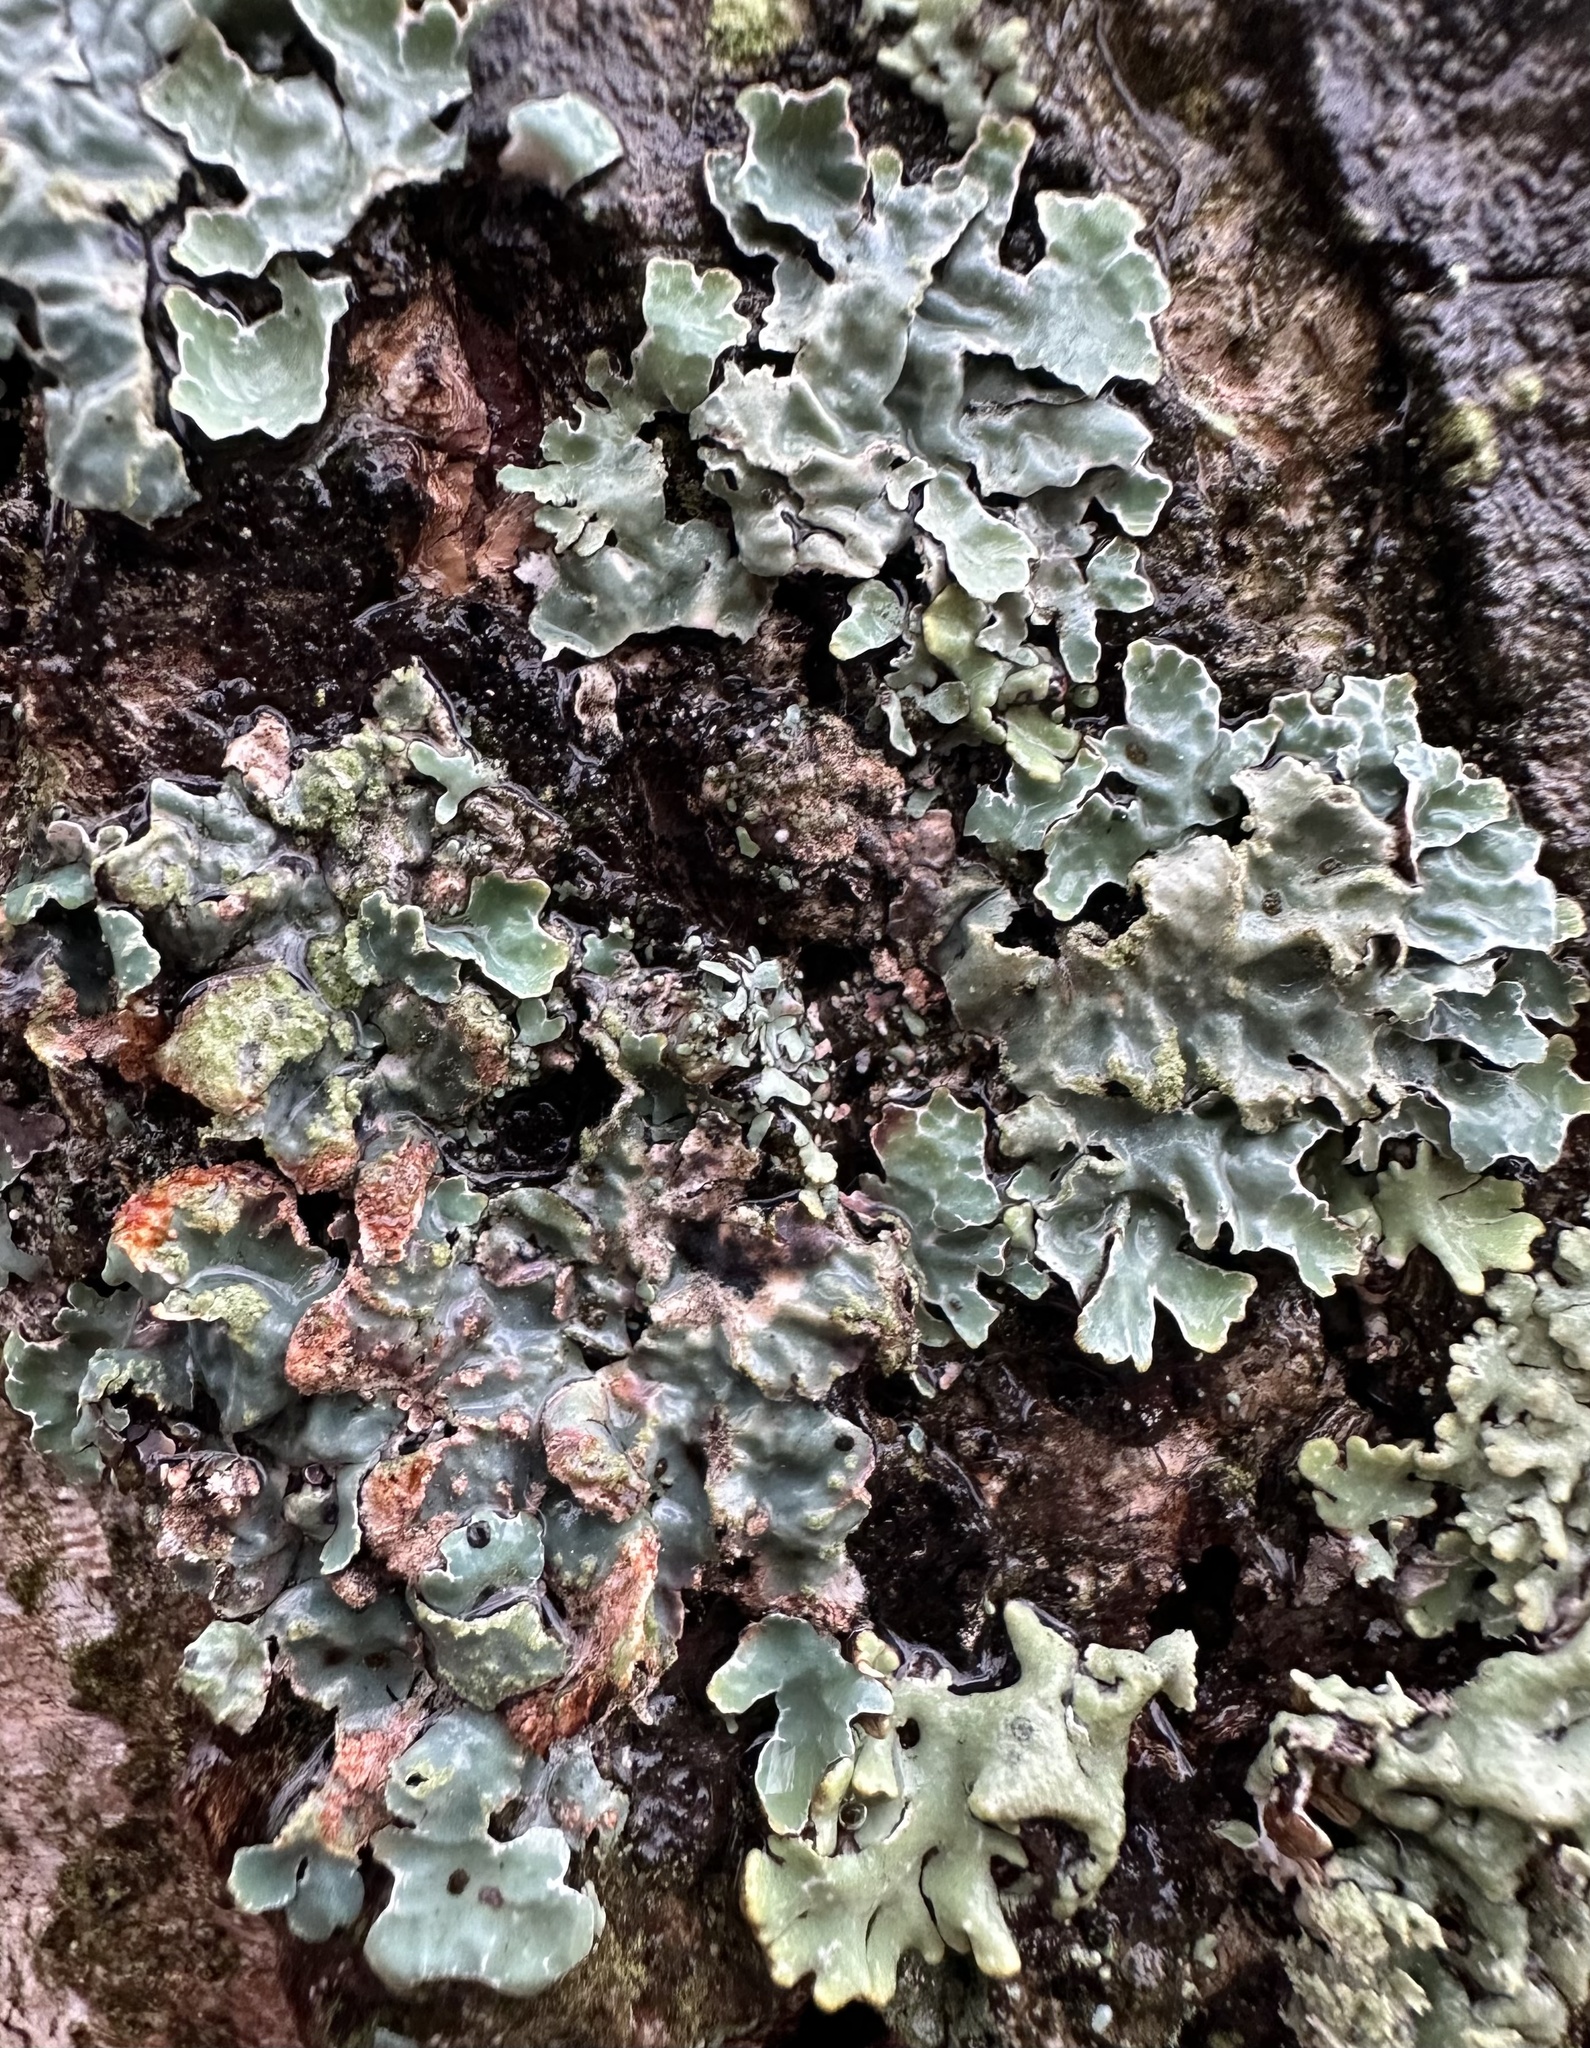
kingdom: Fungi
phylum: Ascomycota
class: Lecanoromycetes
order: Lecanorales
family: Parmeliaceae
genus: Parmelia
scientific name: Parmelia sulcata
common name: Netted shield lichen
